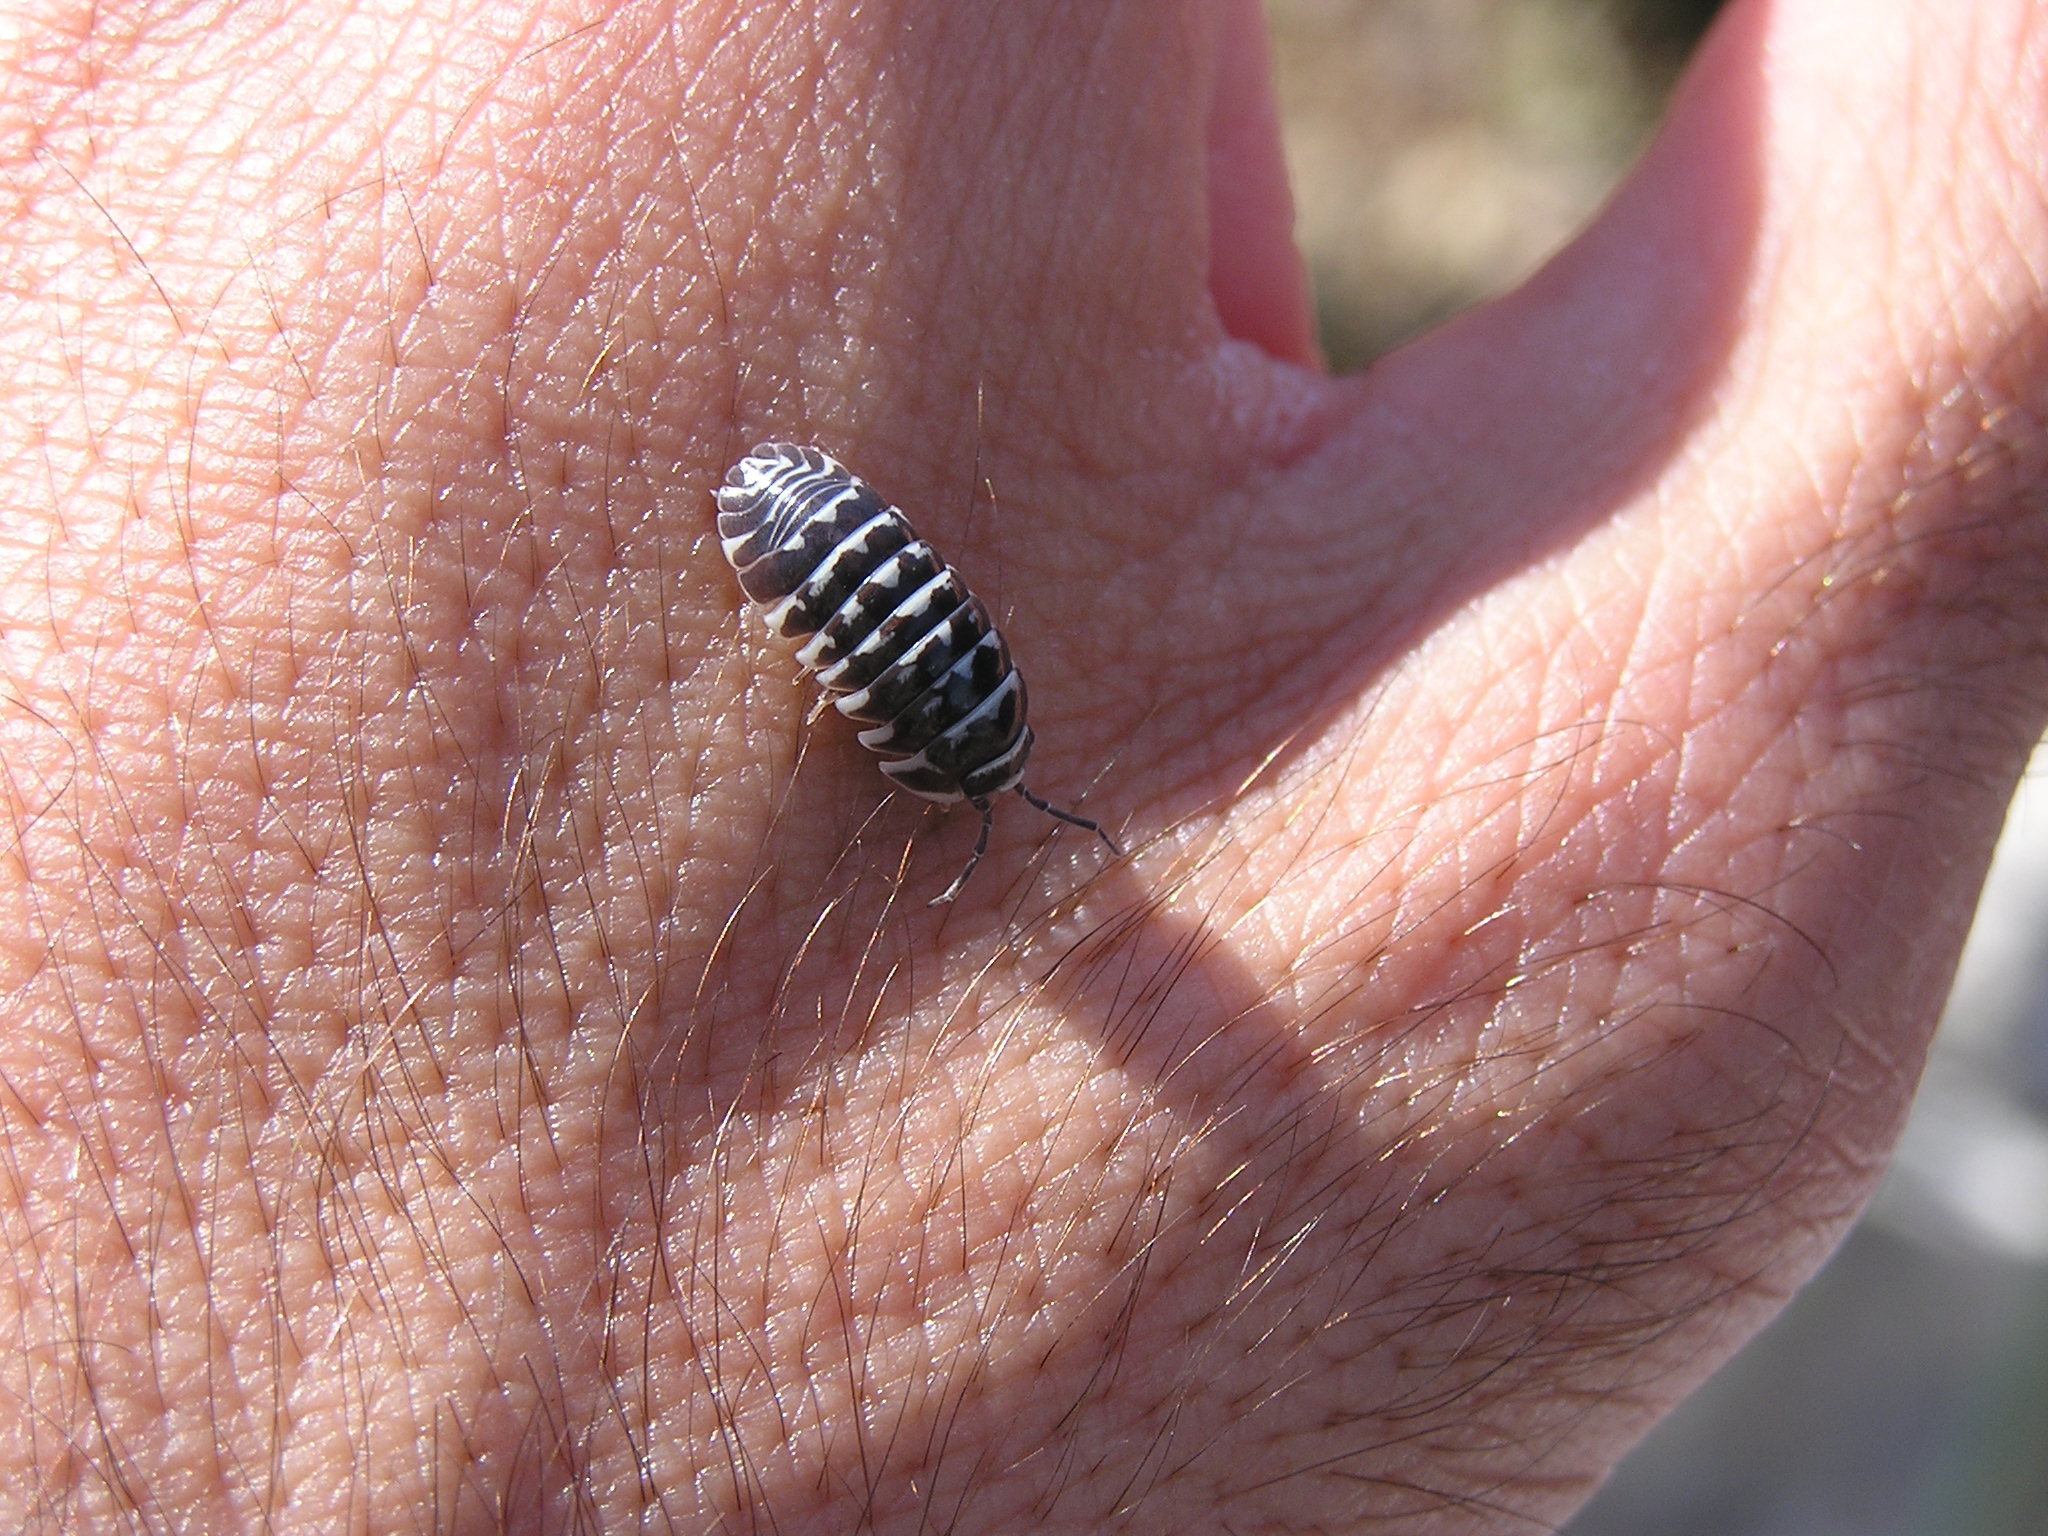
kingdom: Animalia
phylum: Arthropoda
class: Malacostraca
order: Isopoda
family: Armadillidiidae
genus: Armadillidium
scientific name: Armadillidium maculatum
